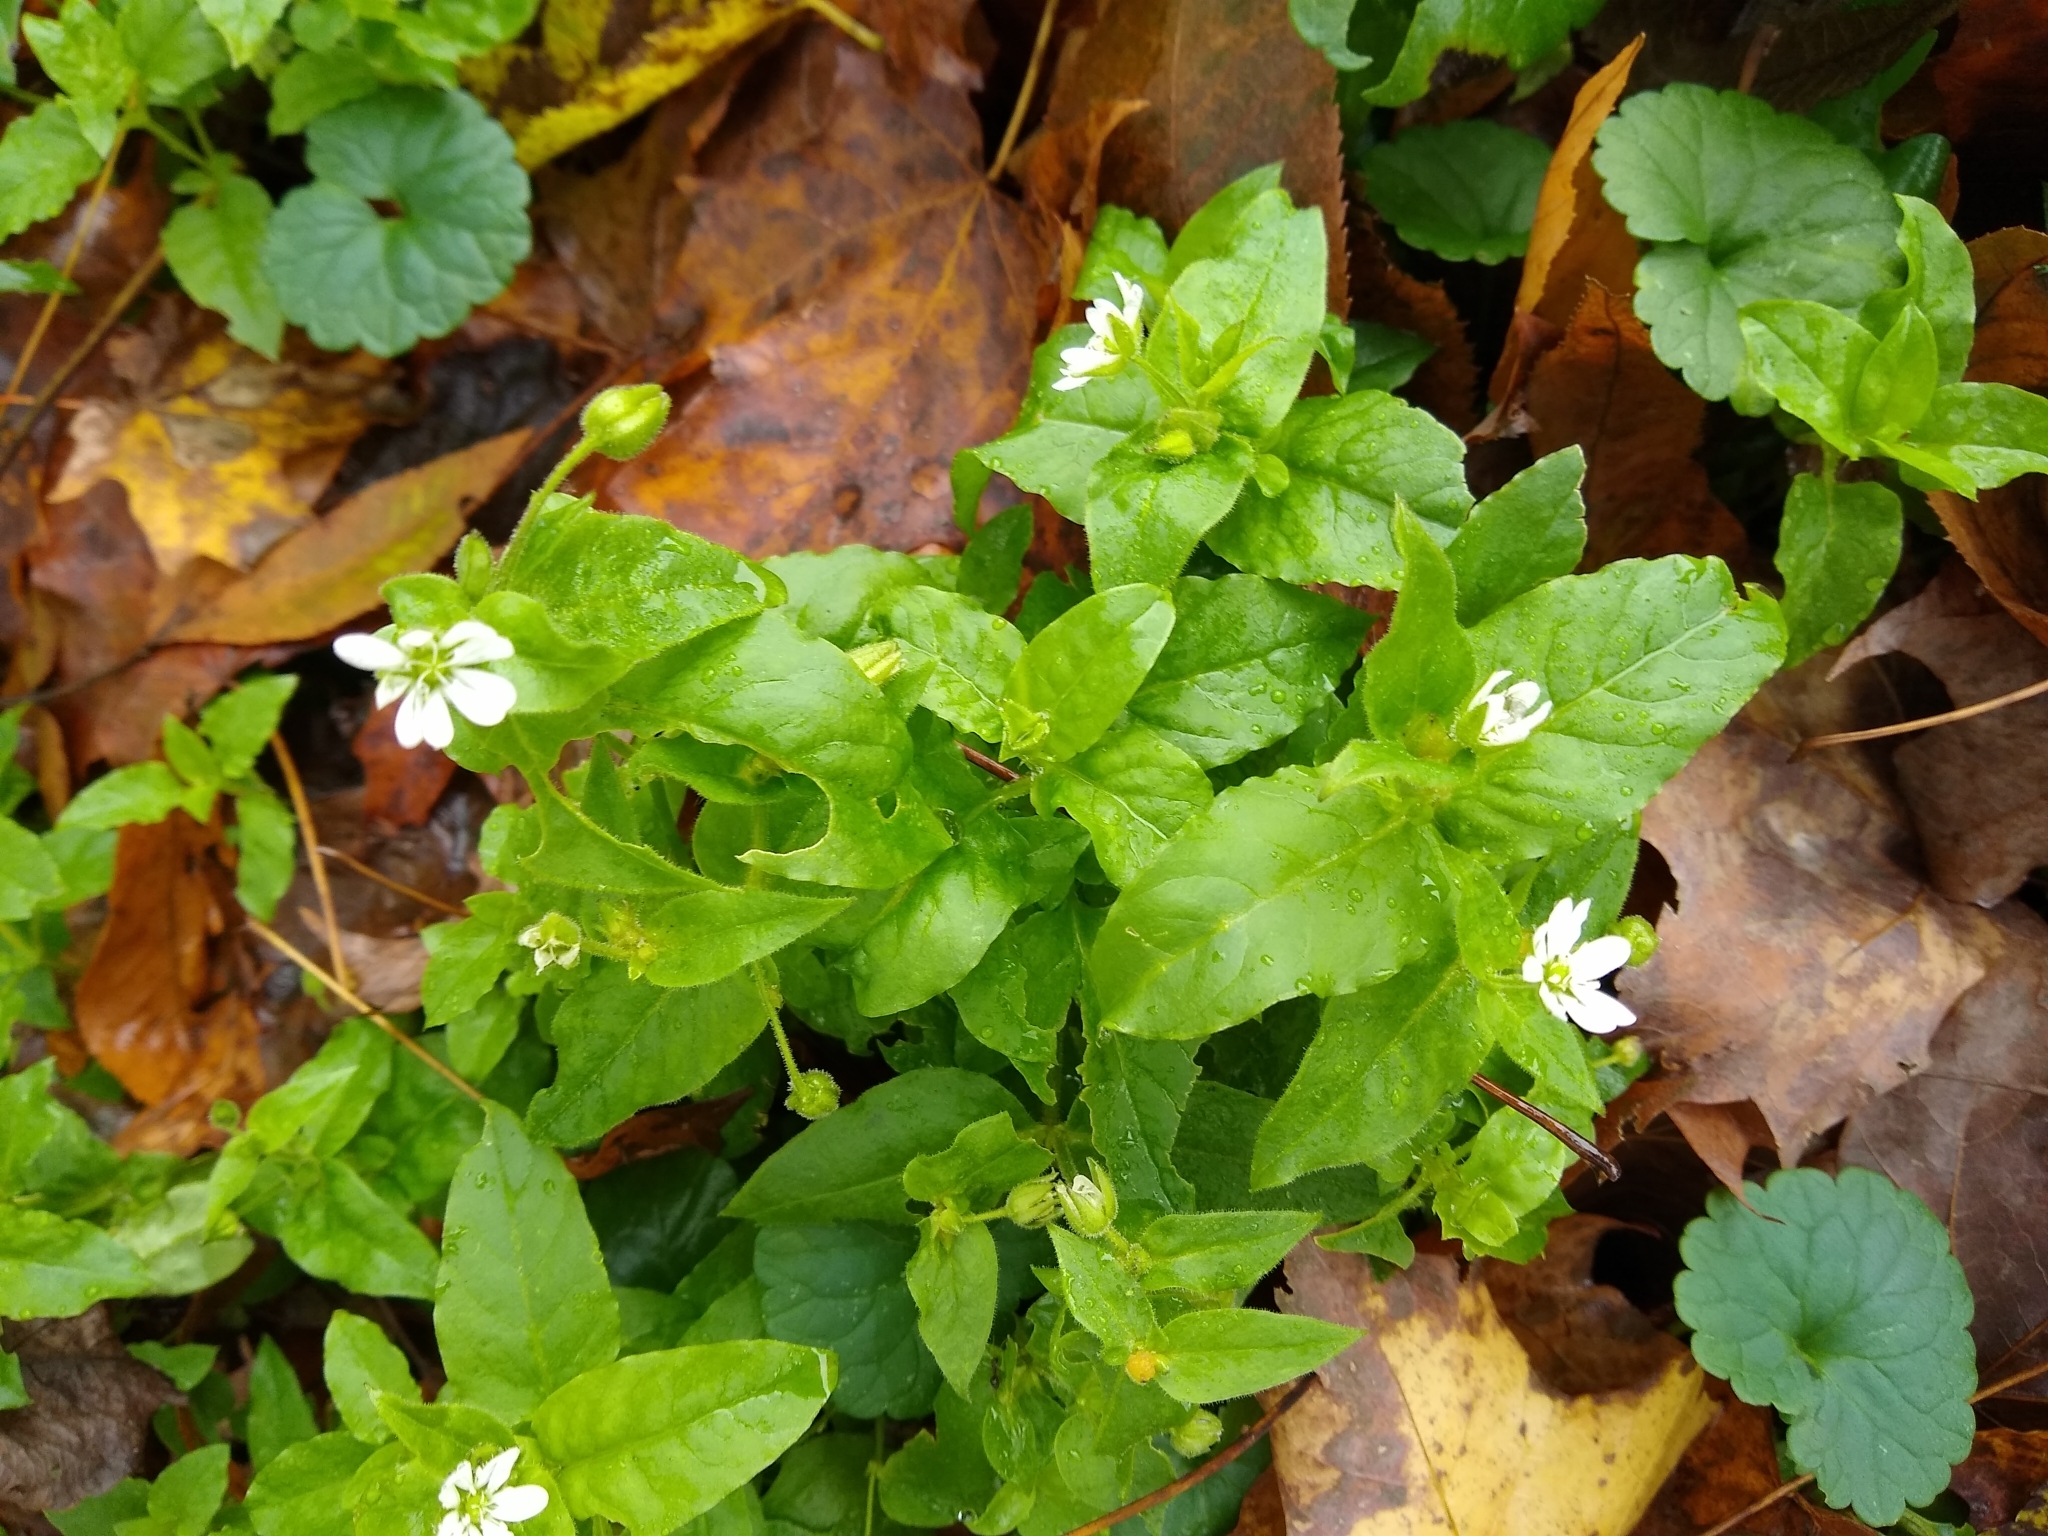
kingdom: Plantae
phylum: Tracheophyta
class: Magnoliopsida
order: Caryophyllales
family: Caryophyllaceae
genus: Stellaria
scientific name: Stellaria aquatica
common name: Water chickweed
